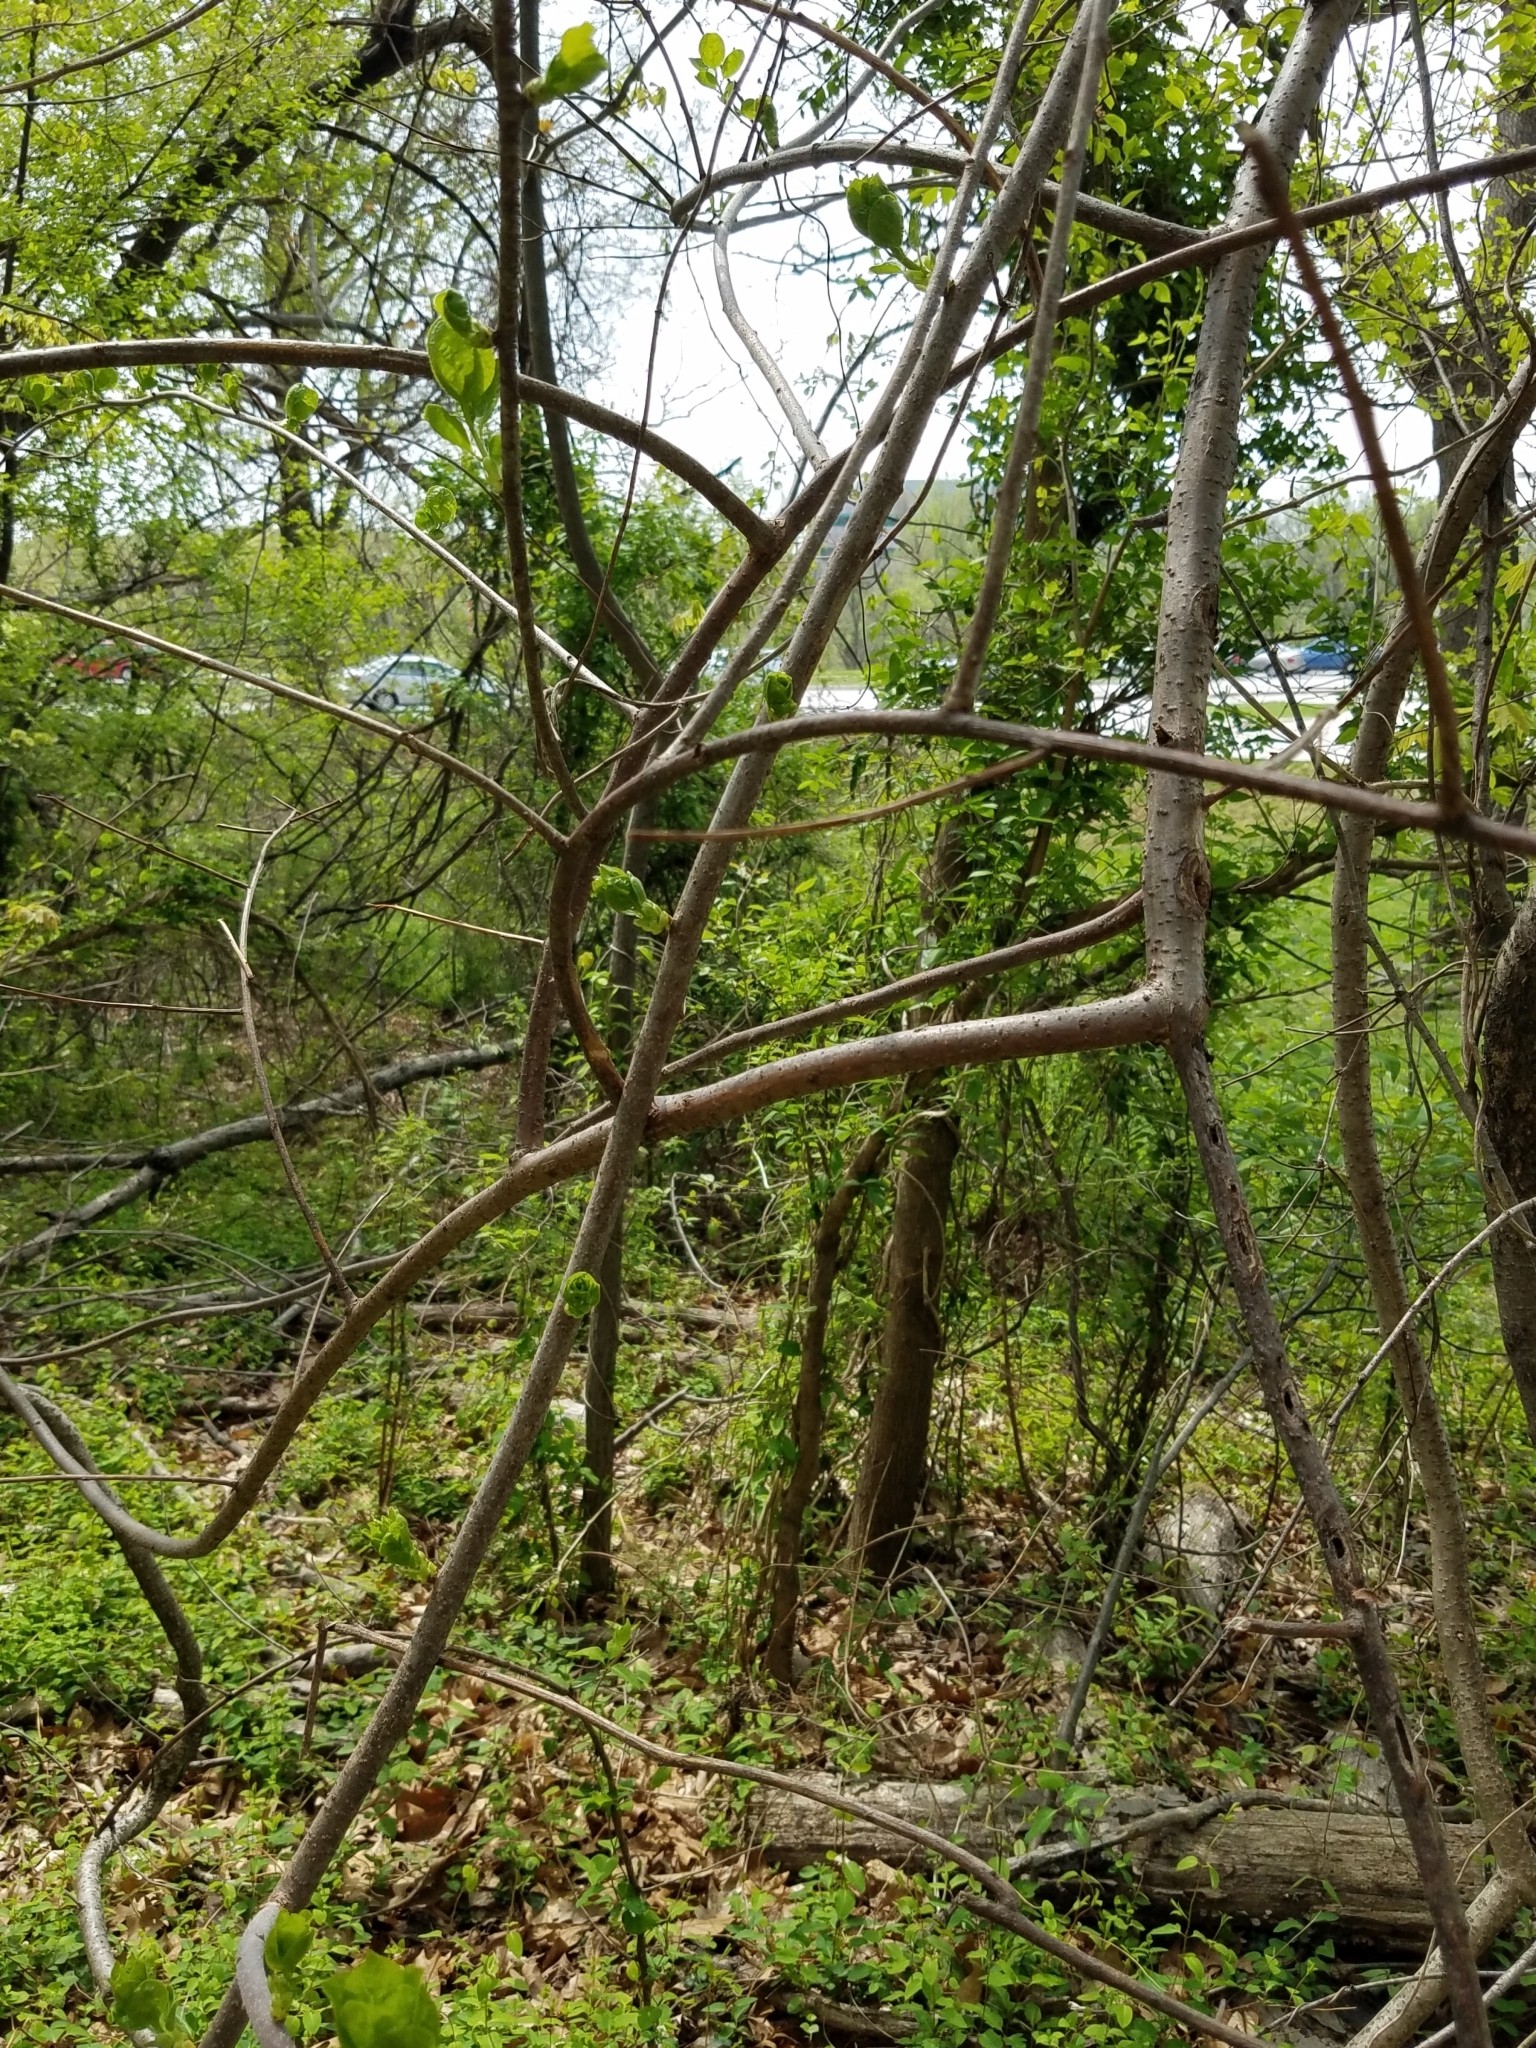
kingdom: Plantae
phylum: Tracheophyta
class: Magnoliopsida
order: Celastrales
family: Celastraceae
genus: Celastrus
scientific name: Celastrus orbiculatus
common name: Oriental bittersweet
